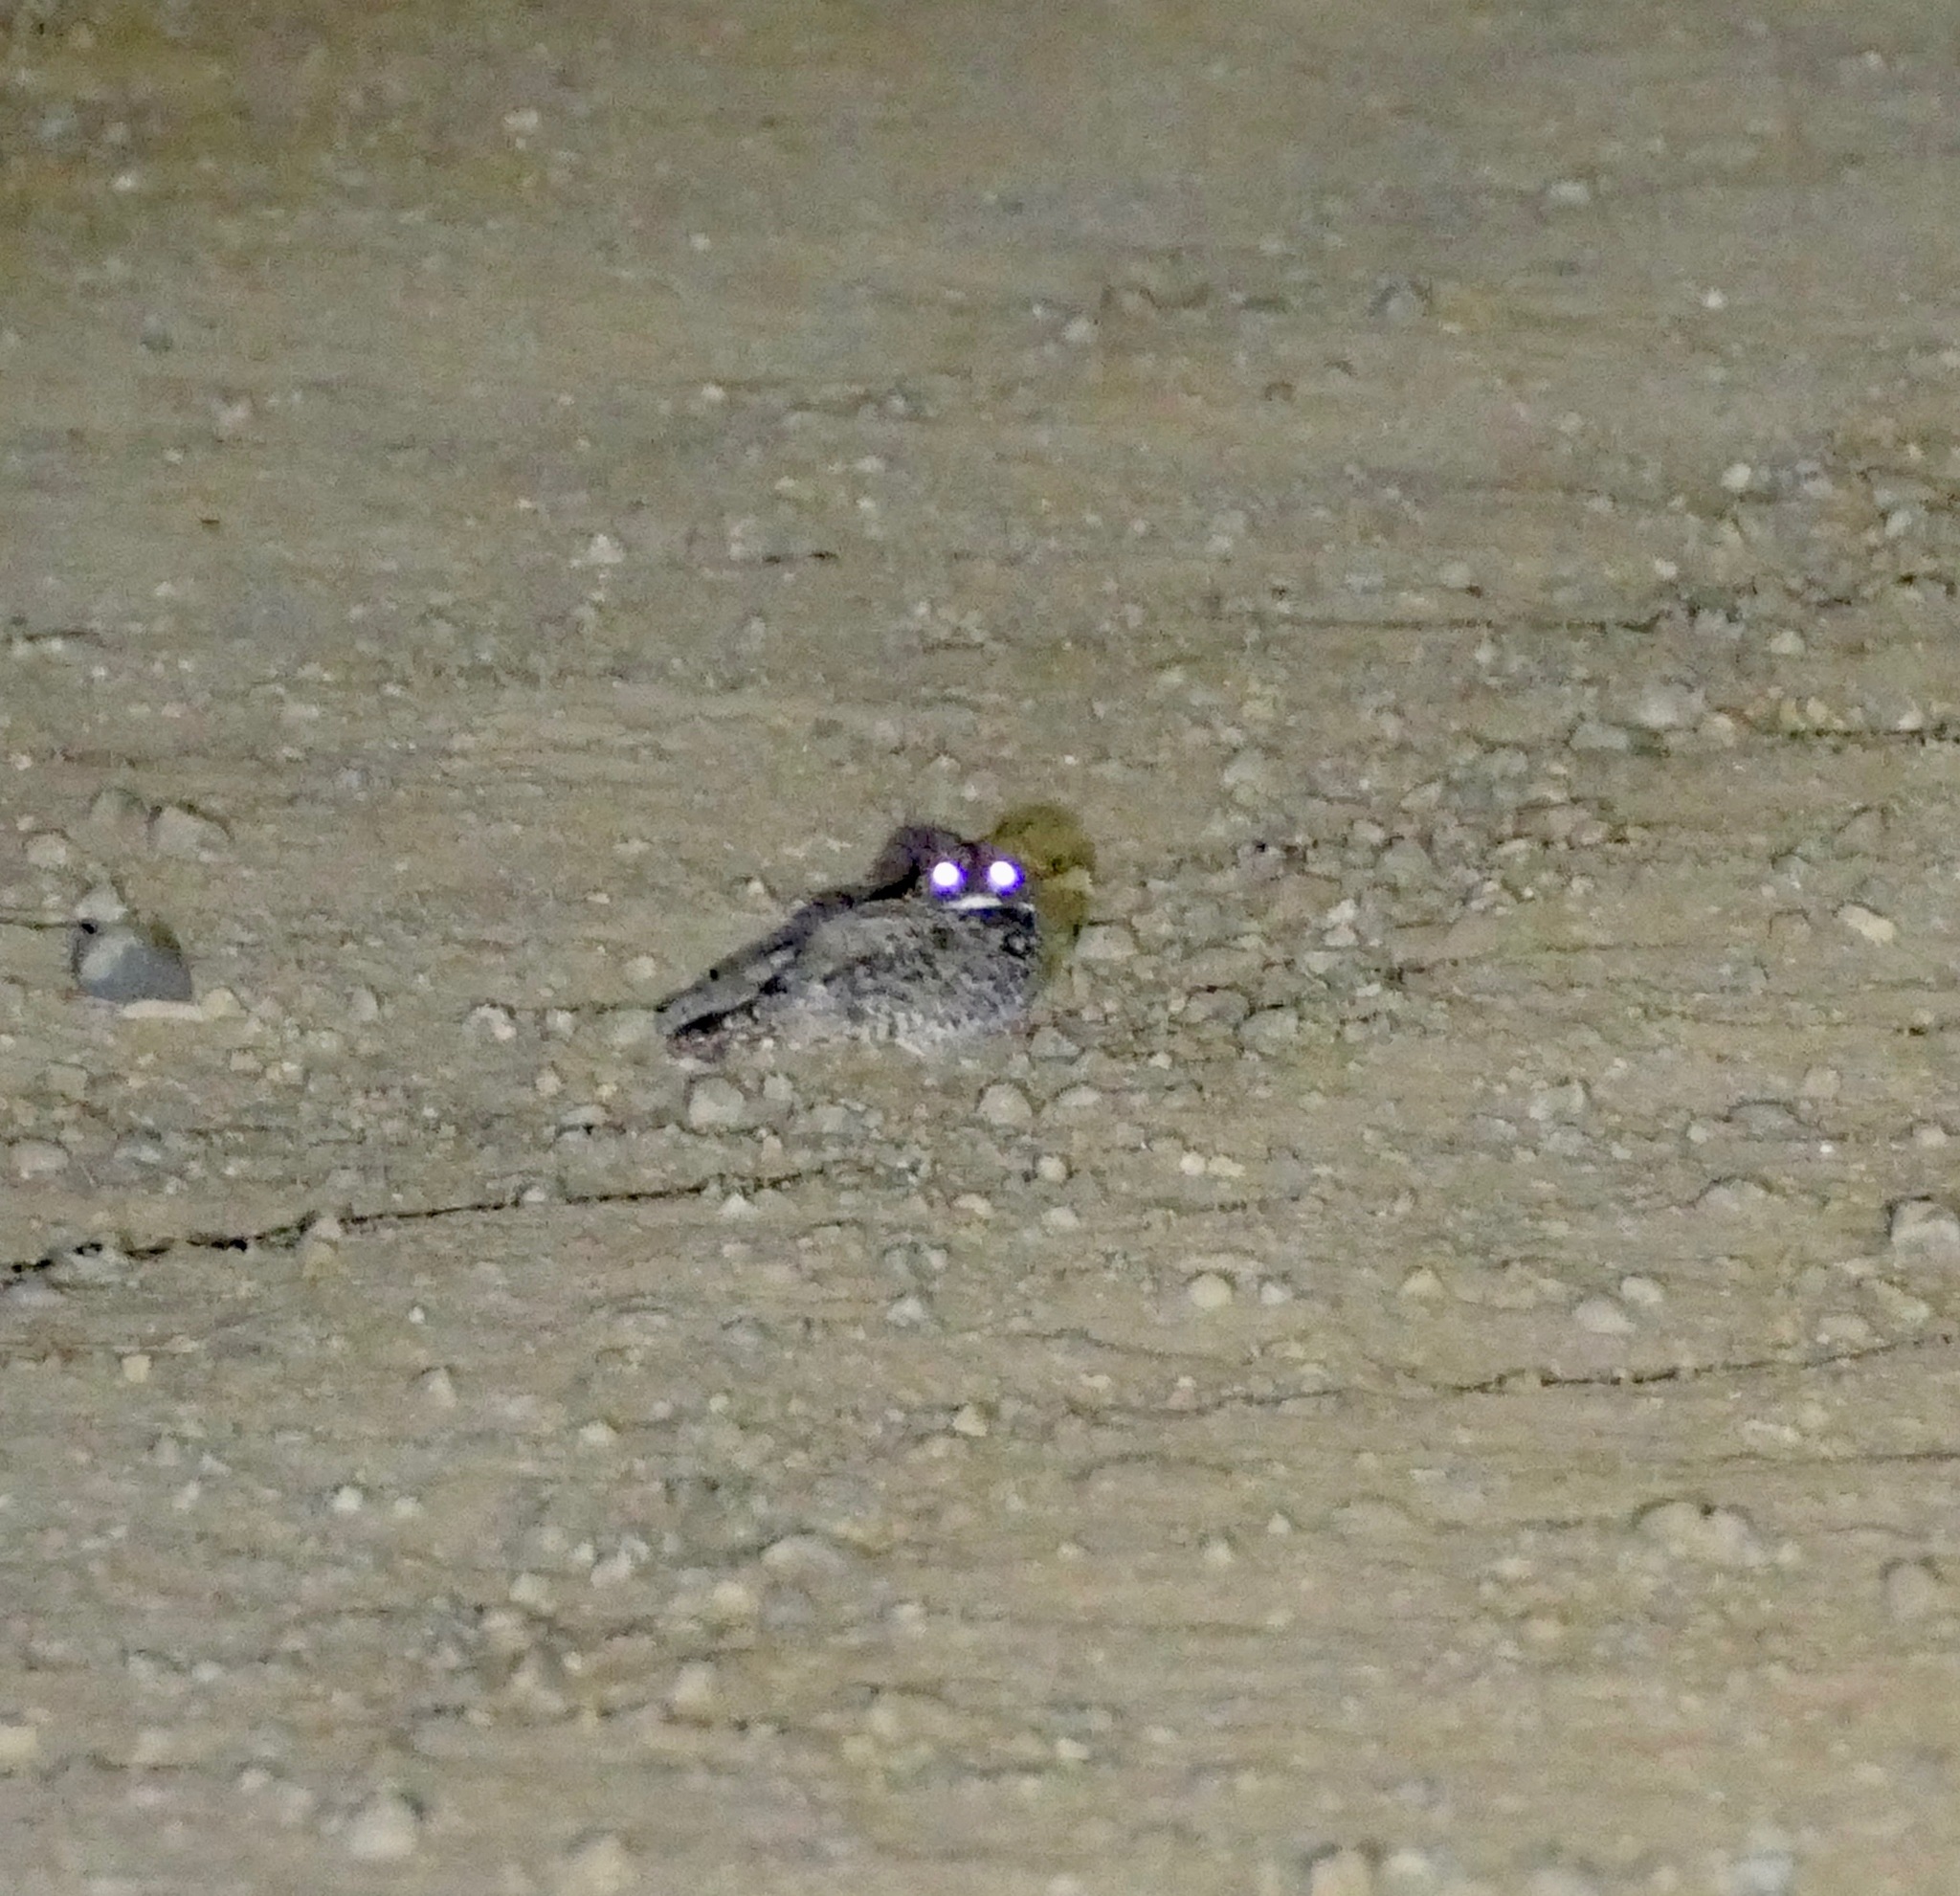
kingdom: Animalia
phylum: Chordata
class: Aves
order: Caprimulgiformes
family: Caprimulgidae
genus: Phalaenoptilus
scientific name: Phalaenoptilus nuttallii
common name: Common poorwill
